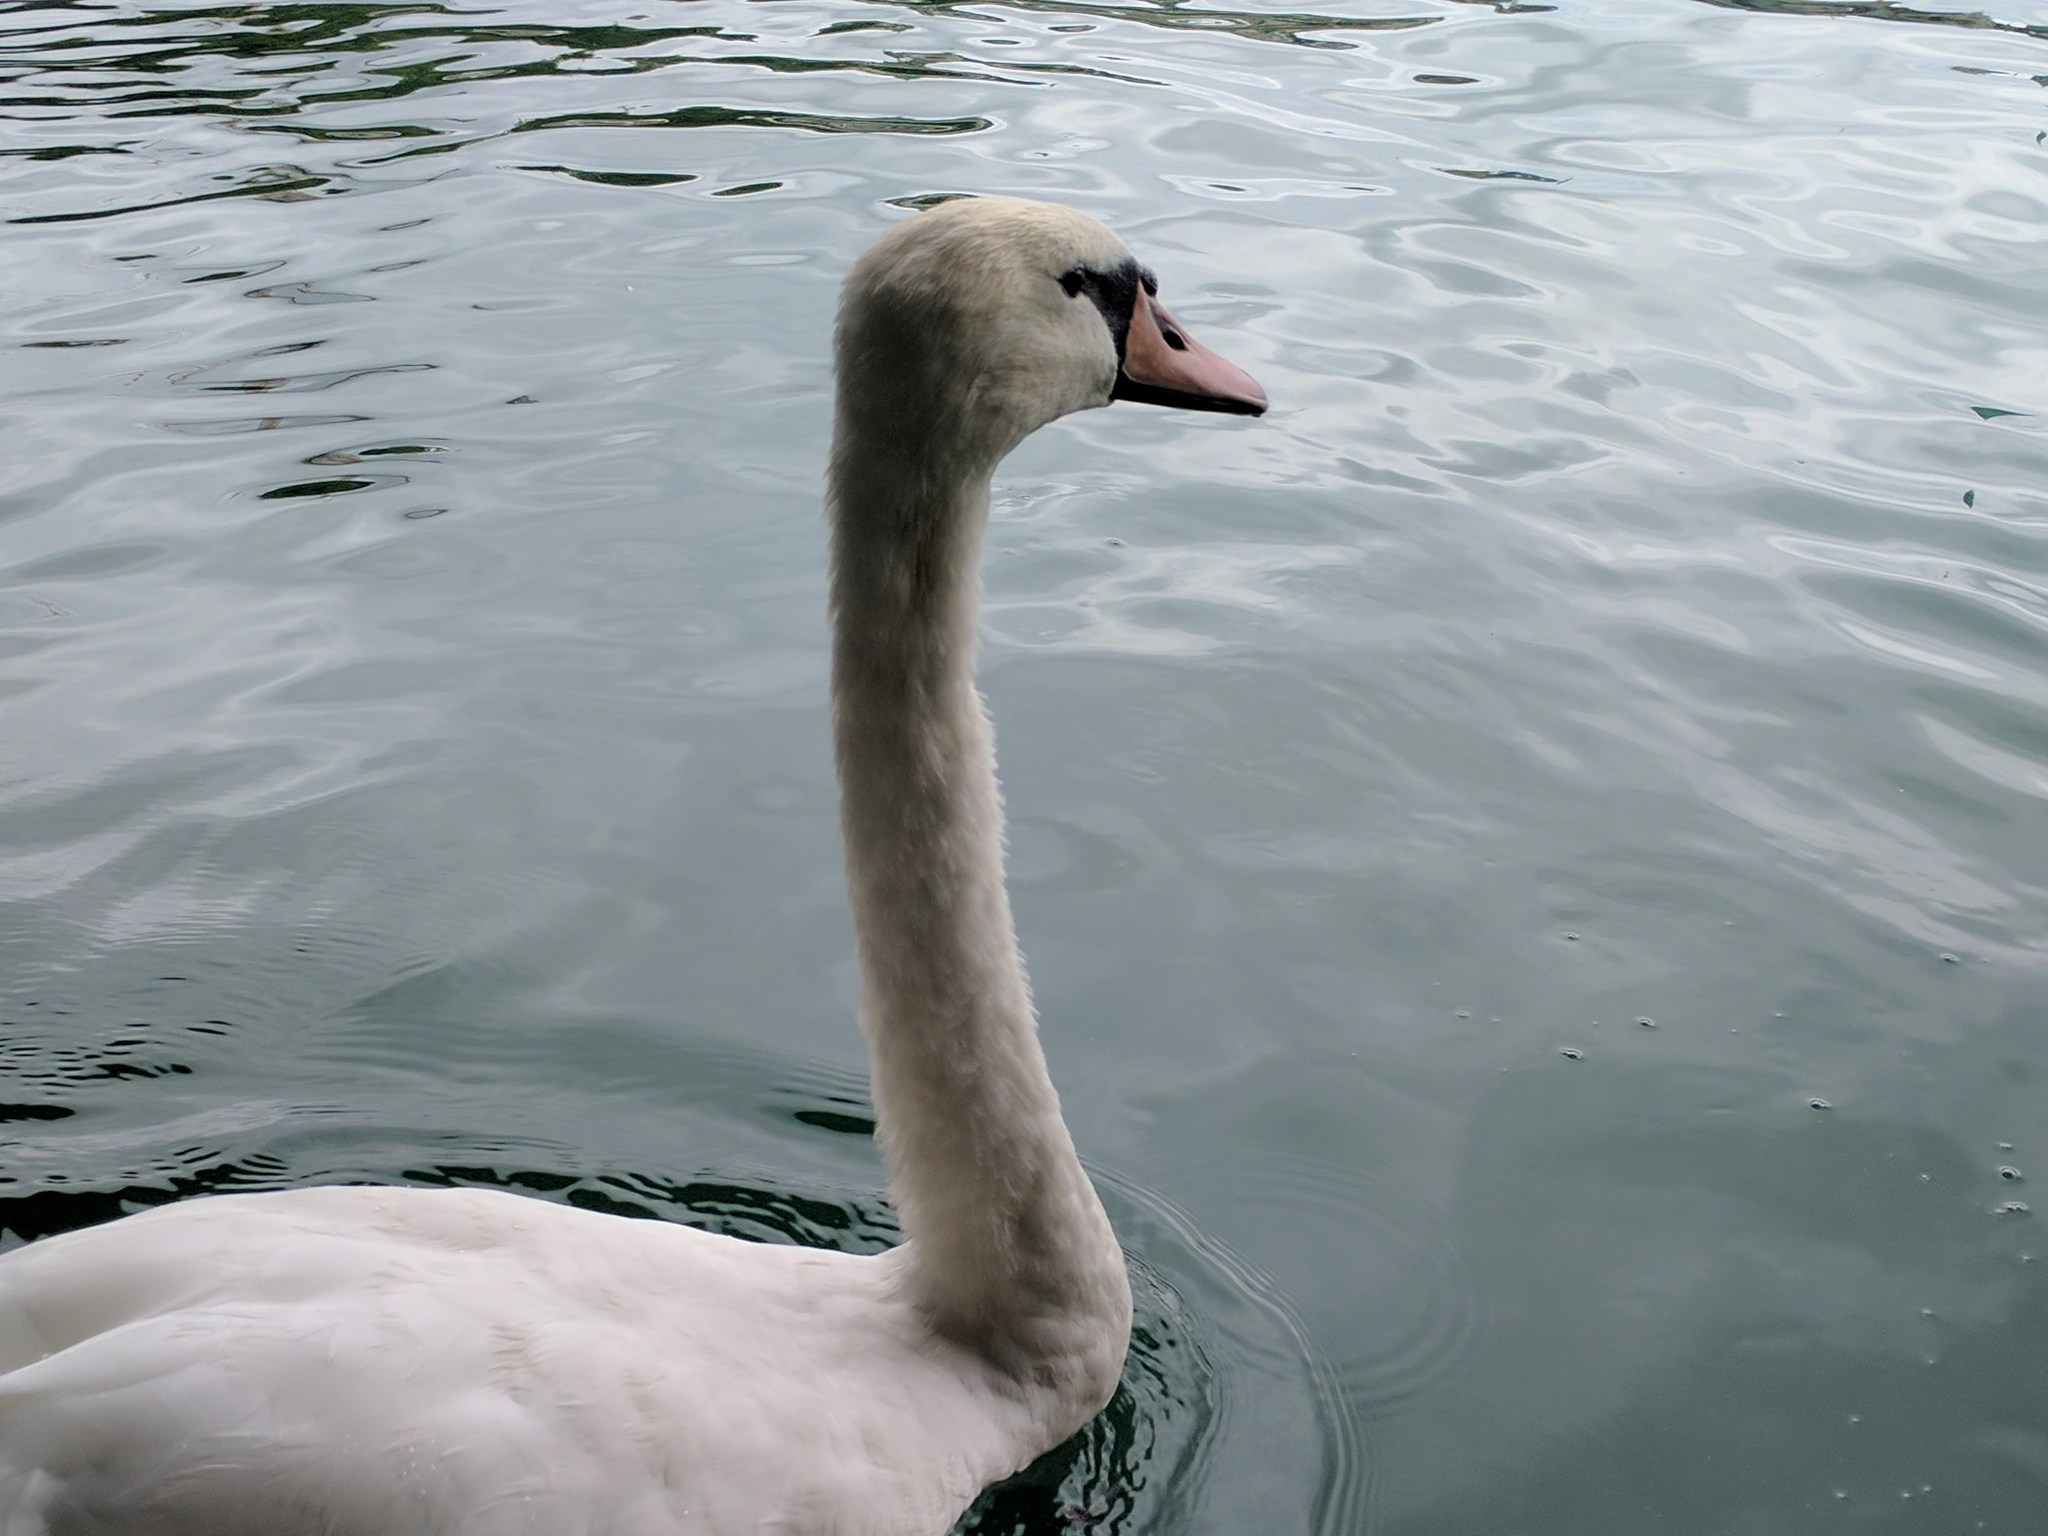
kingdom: Animalia
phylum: Chordata
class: Aves
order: Anseriformes
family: Anatidae
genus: Cygnus
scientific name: Cygnus olor
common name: Mute swan
